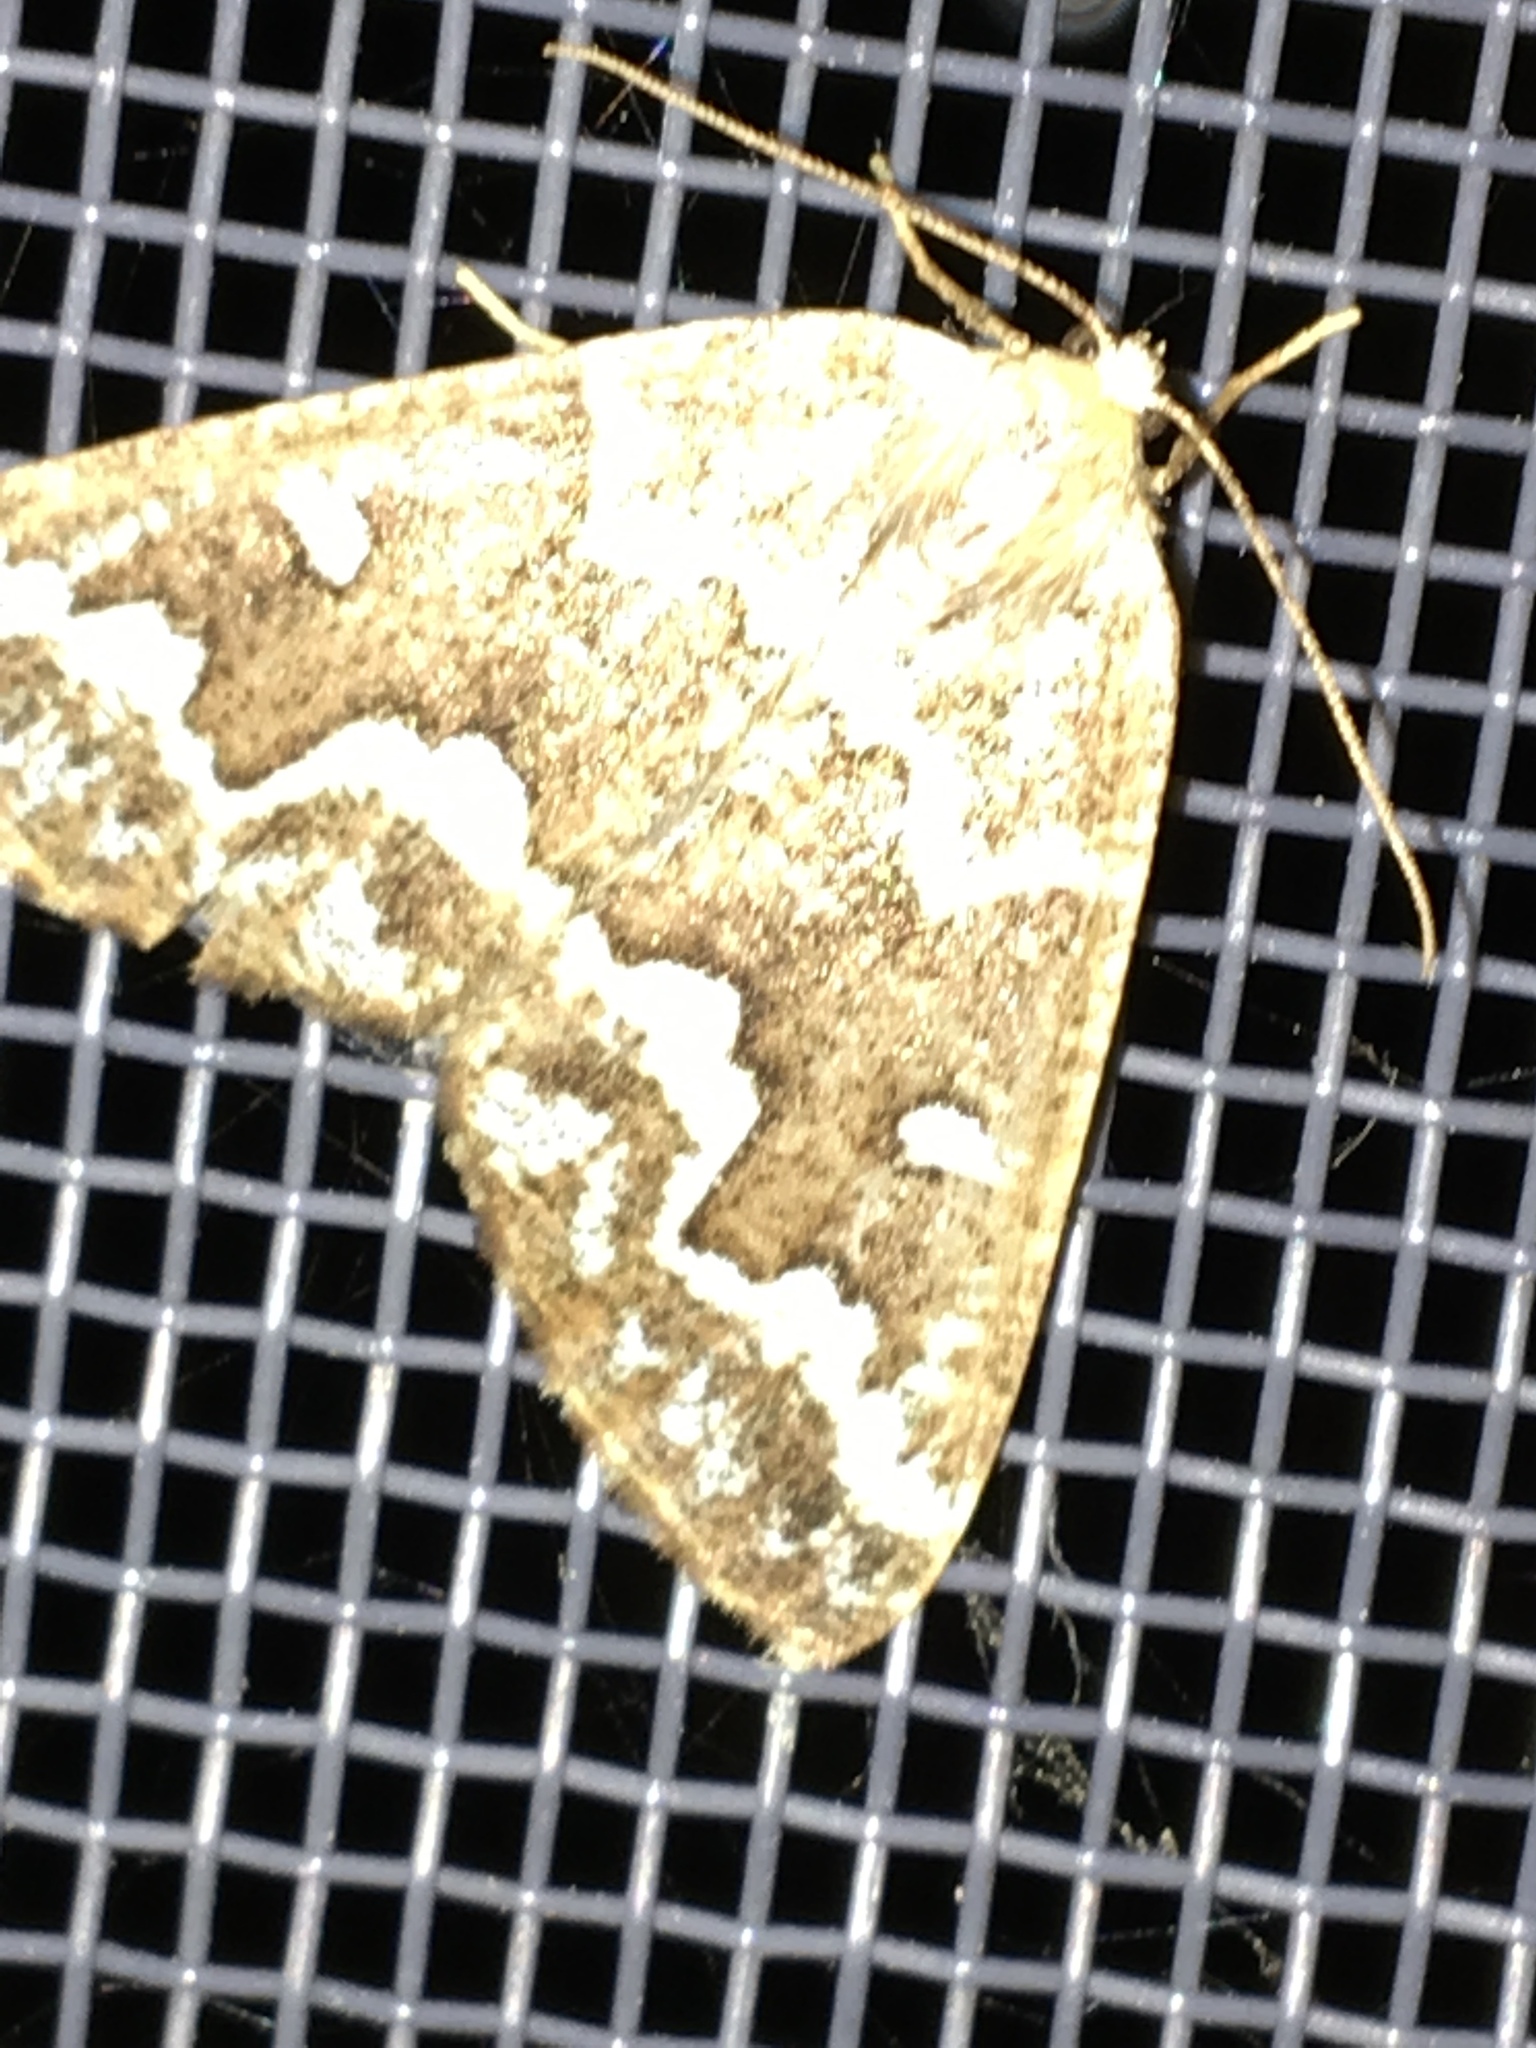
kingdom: Animalia
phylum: Arthropoda
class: Insecta
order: Lepidoptera
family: Geometridae
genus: Caripeta
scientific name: Caripeta divisata
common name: Gray spruce looper
